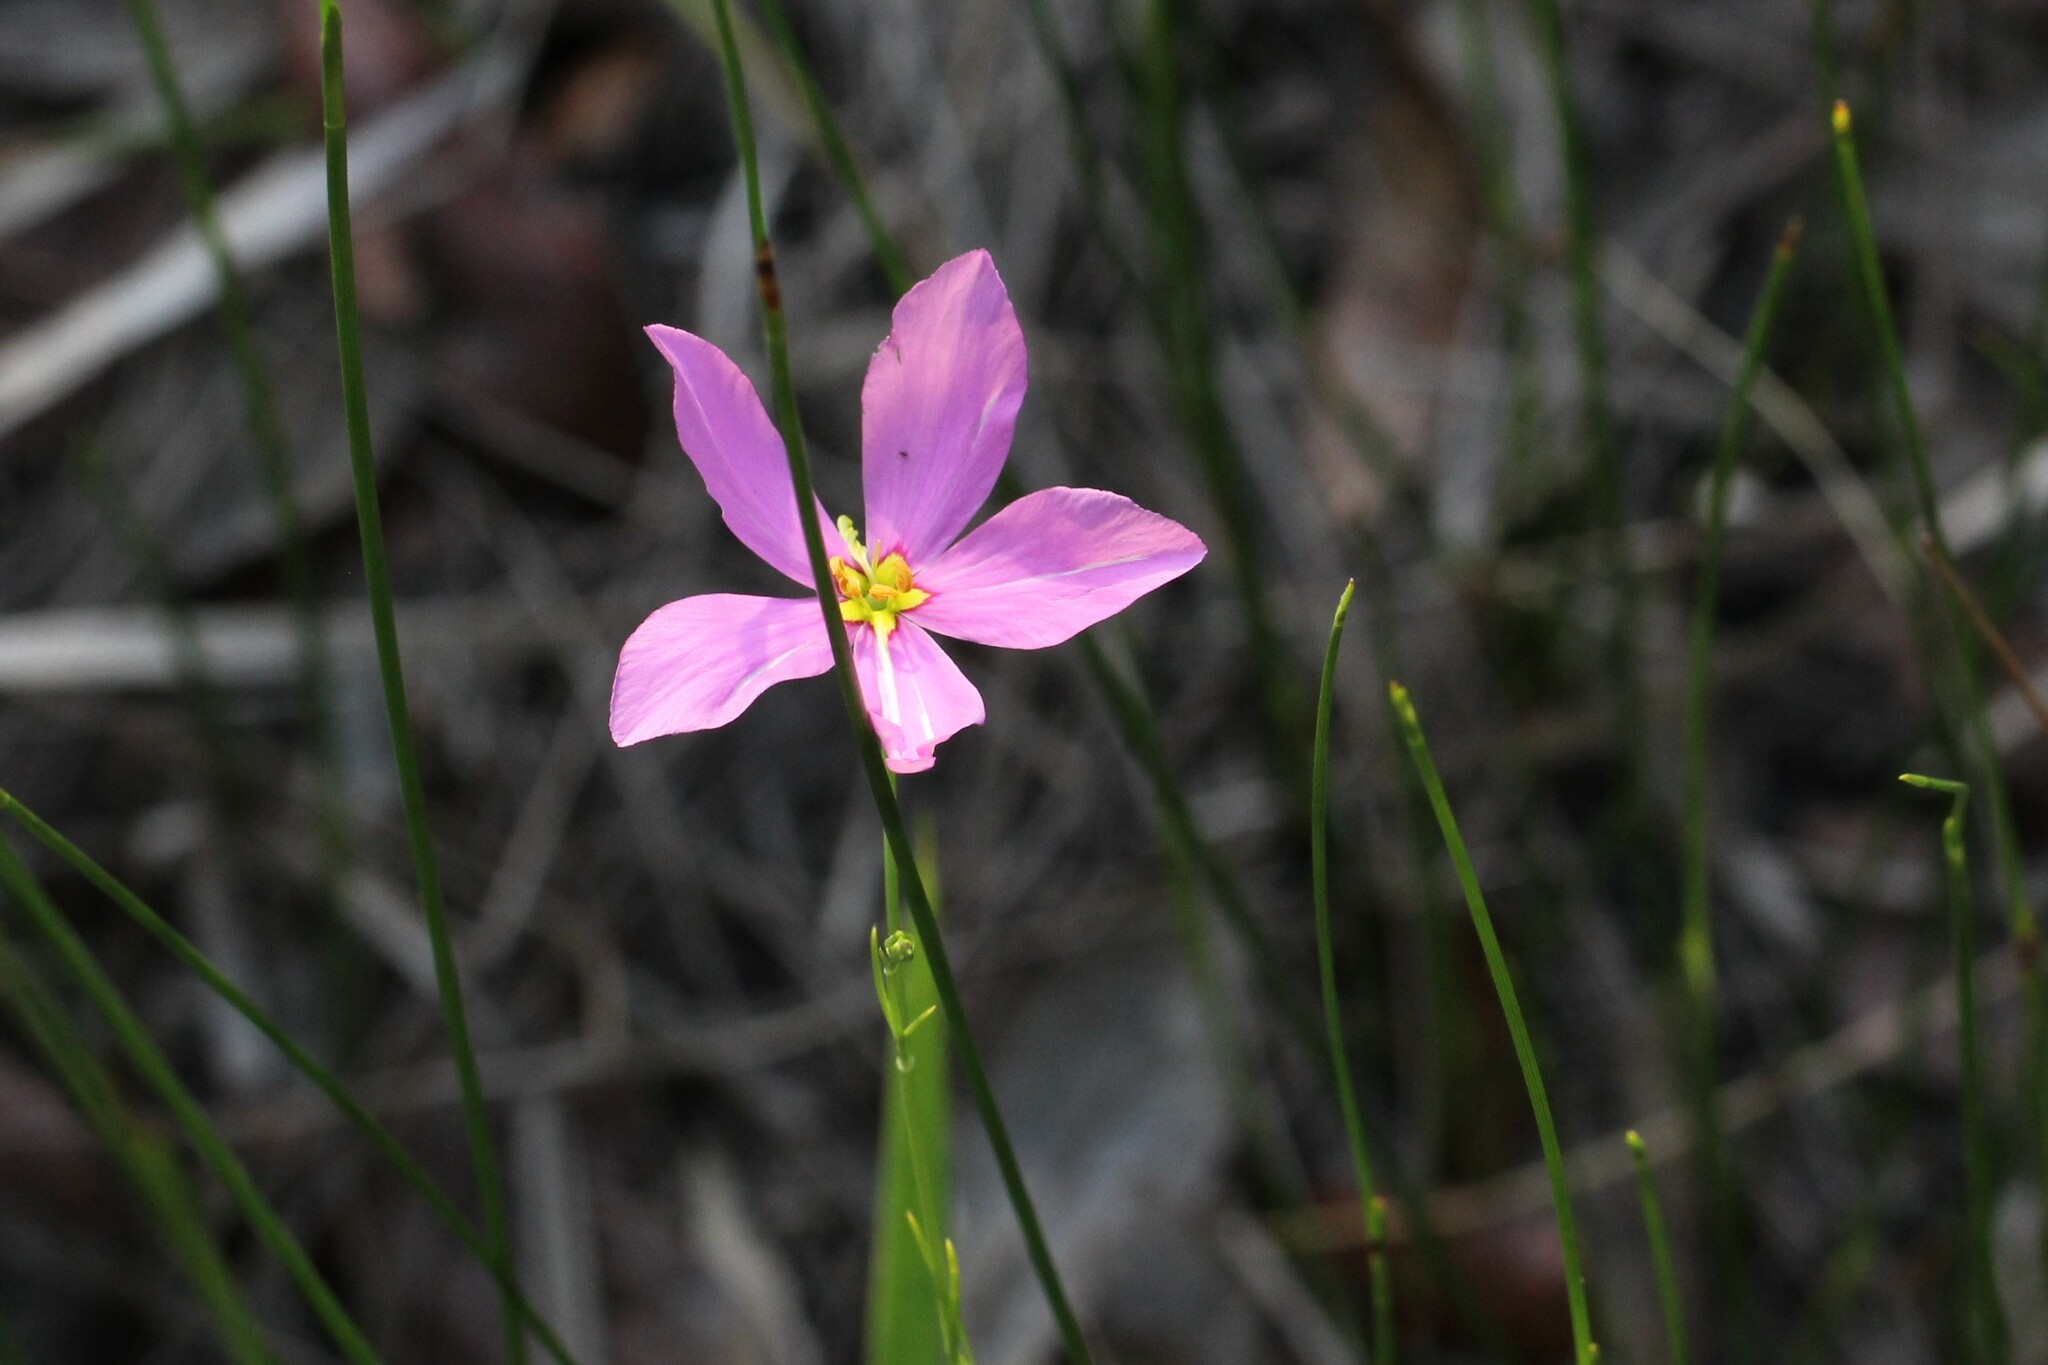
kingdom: Plantae
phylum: Tracheophyta
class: Magnoliopsida
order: Gentianales
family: Gentianaceae
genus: Sabatia
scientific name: Sabatia grandiflora
